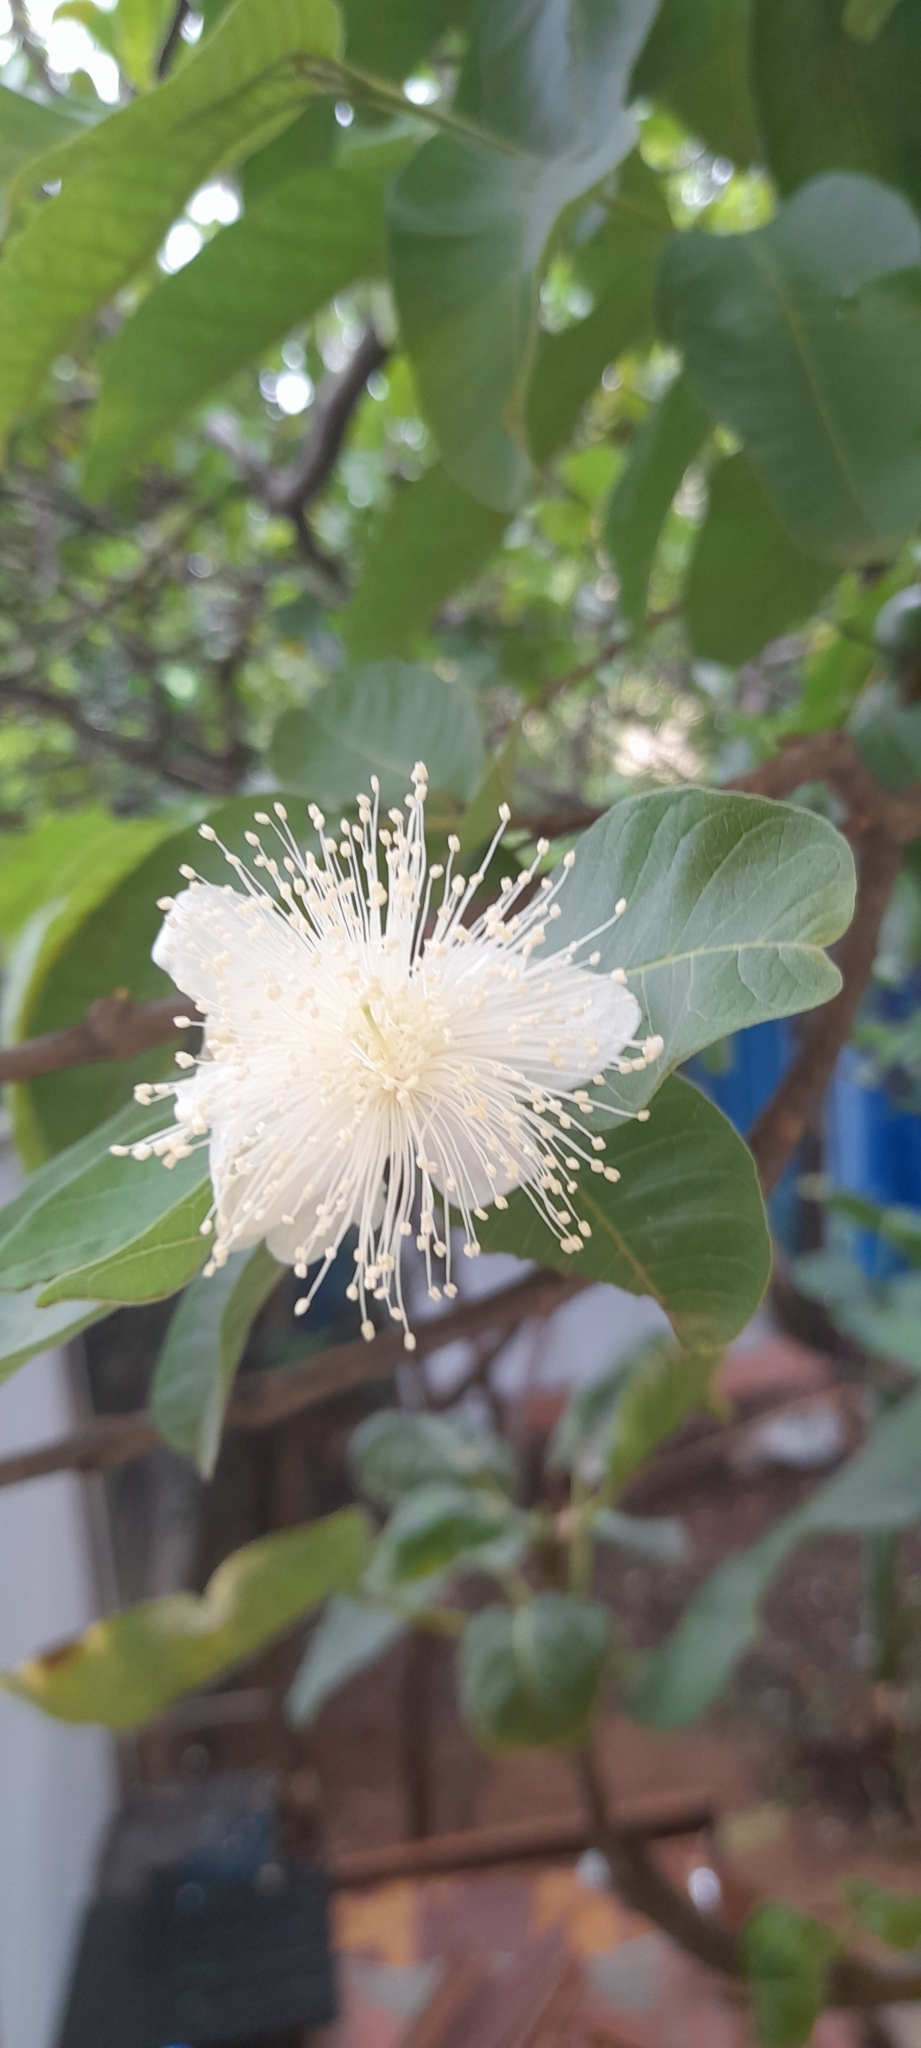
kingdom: Plantae
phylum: Tracheophyta
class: Magnoliopsida
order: Myrtales
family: Myrtaceae
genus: Psidium
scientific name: Psidium guajava
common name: Guava
